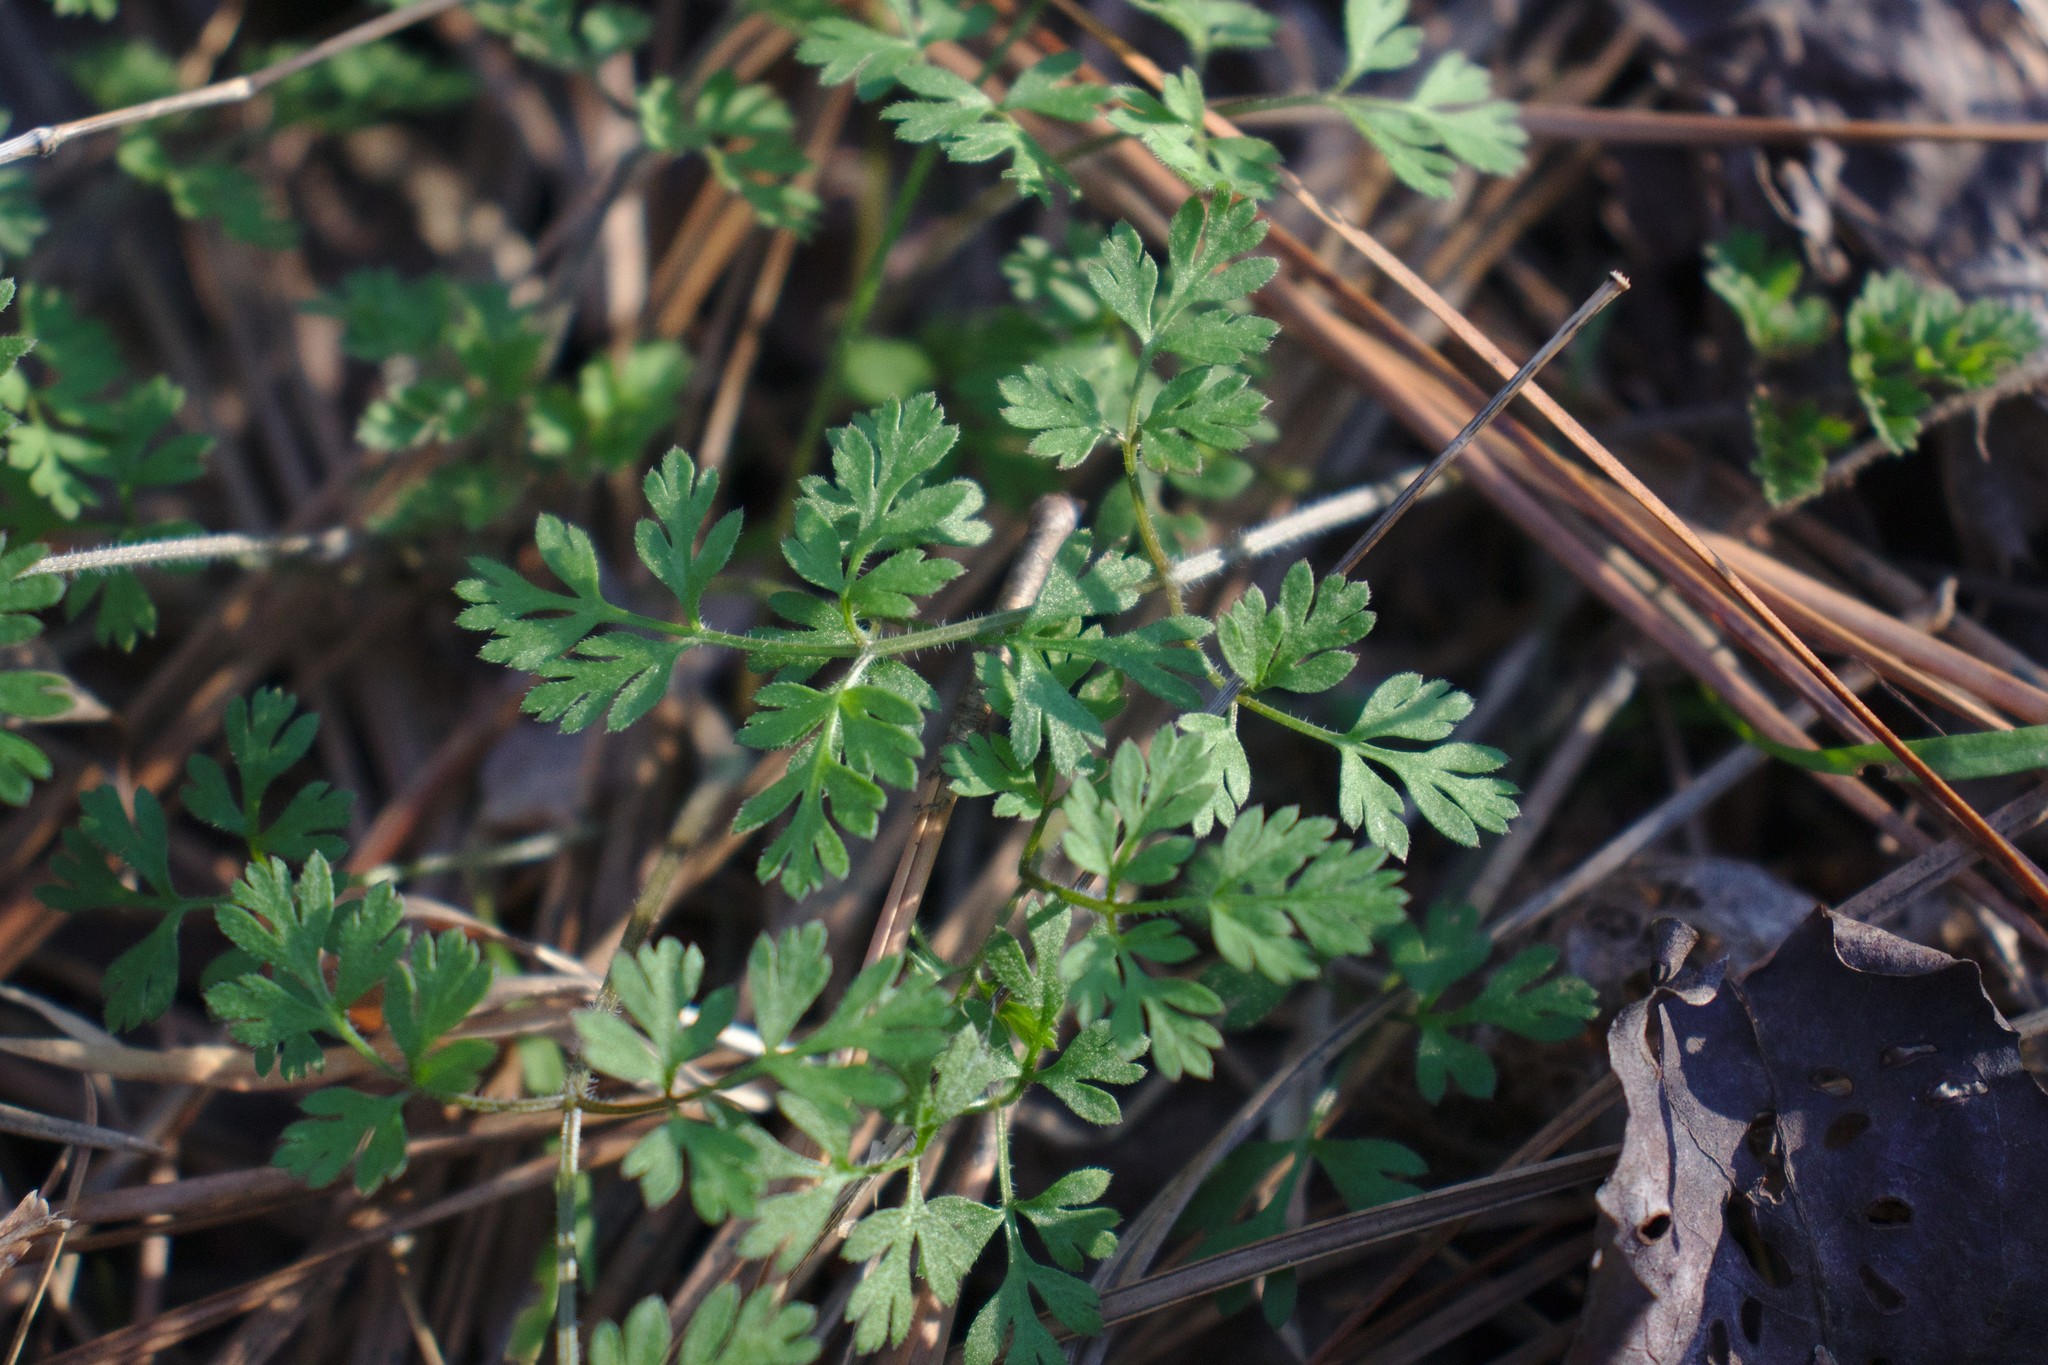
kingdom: Plantae
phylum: Tracheophyta
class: Magnoliopsida
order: Apiales
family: Apiaceae
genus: Chaerophyllum
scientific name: Chaerophyllum tainturieri
